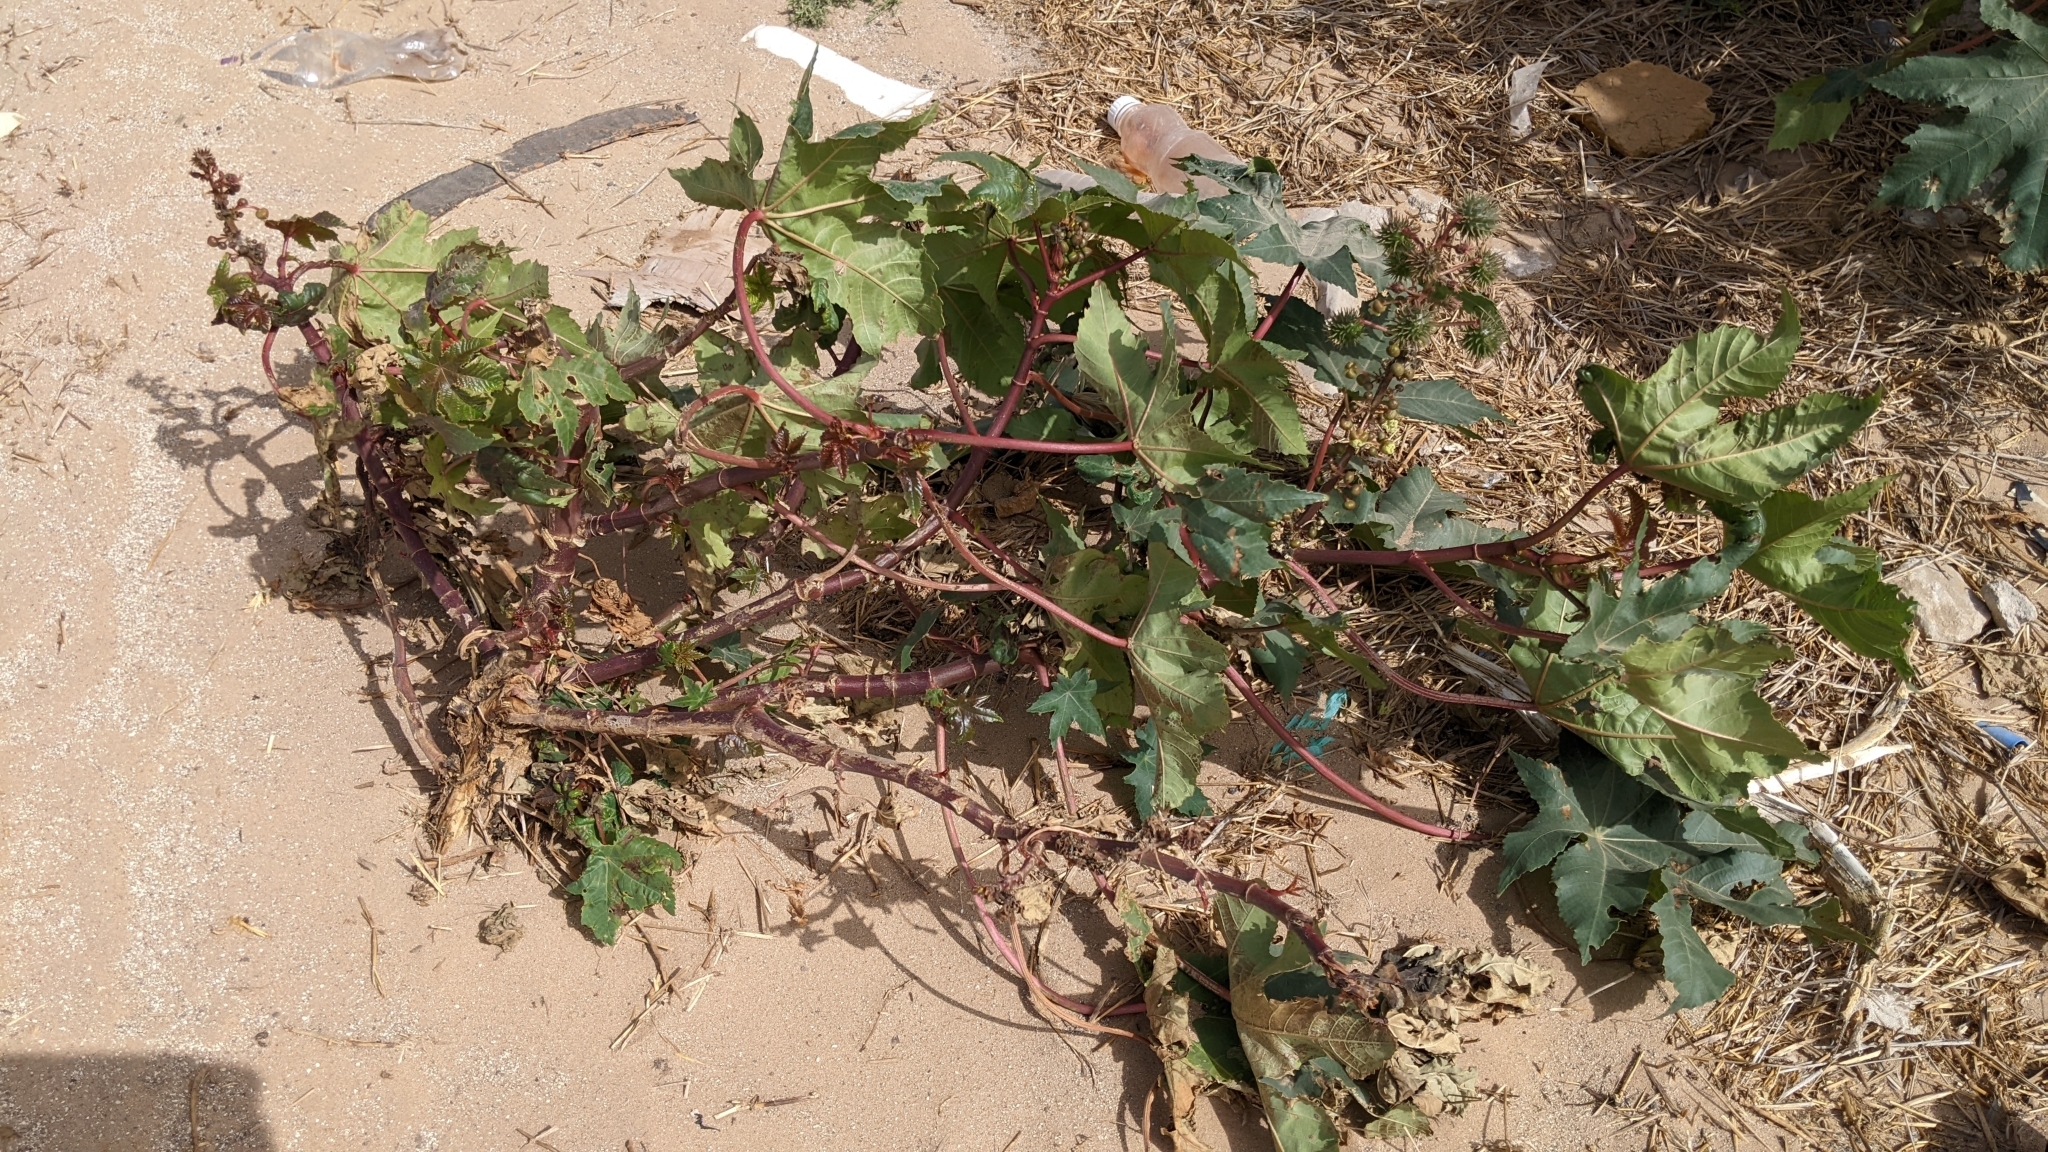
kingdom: Plantae
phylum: Tracheophyta
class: Magnoliopsida
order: Malpighiales
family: Euphorbiaceae
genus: Ricinus
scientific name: Ricinus communis
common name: Castor-oil-plant
